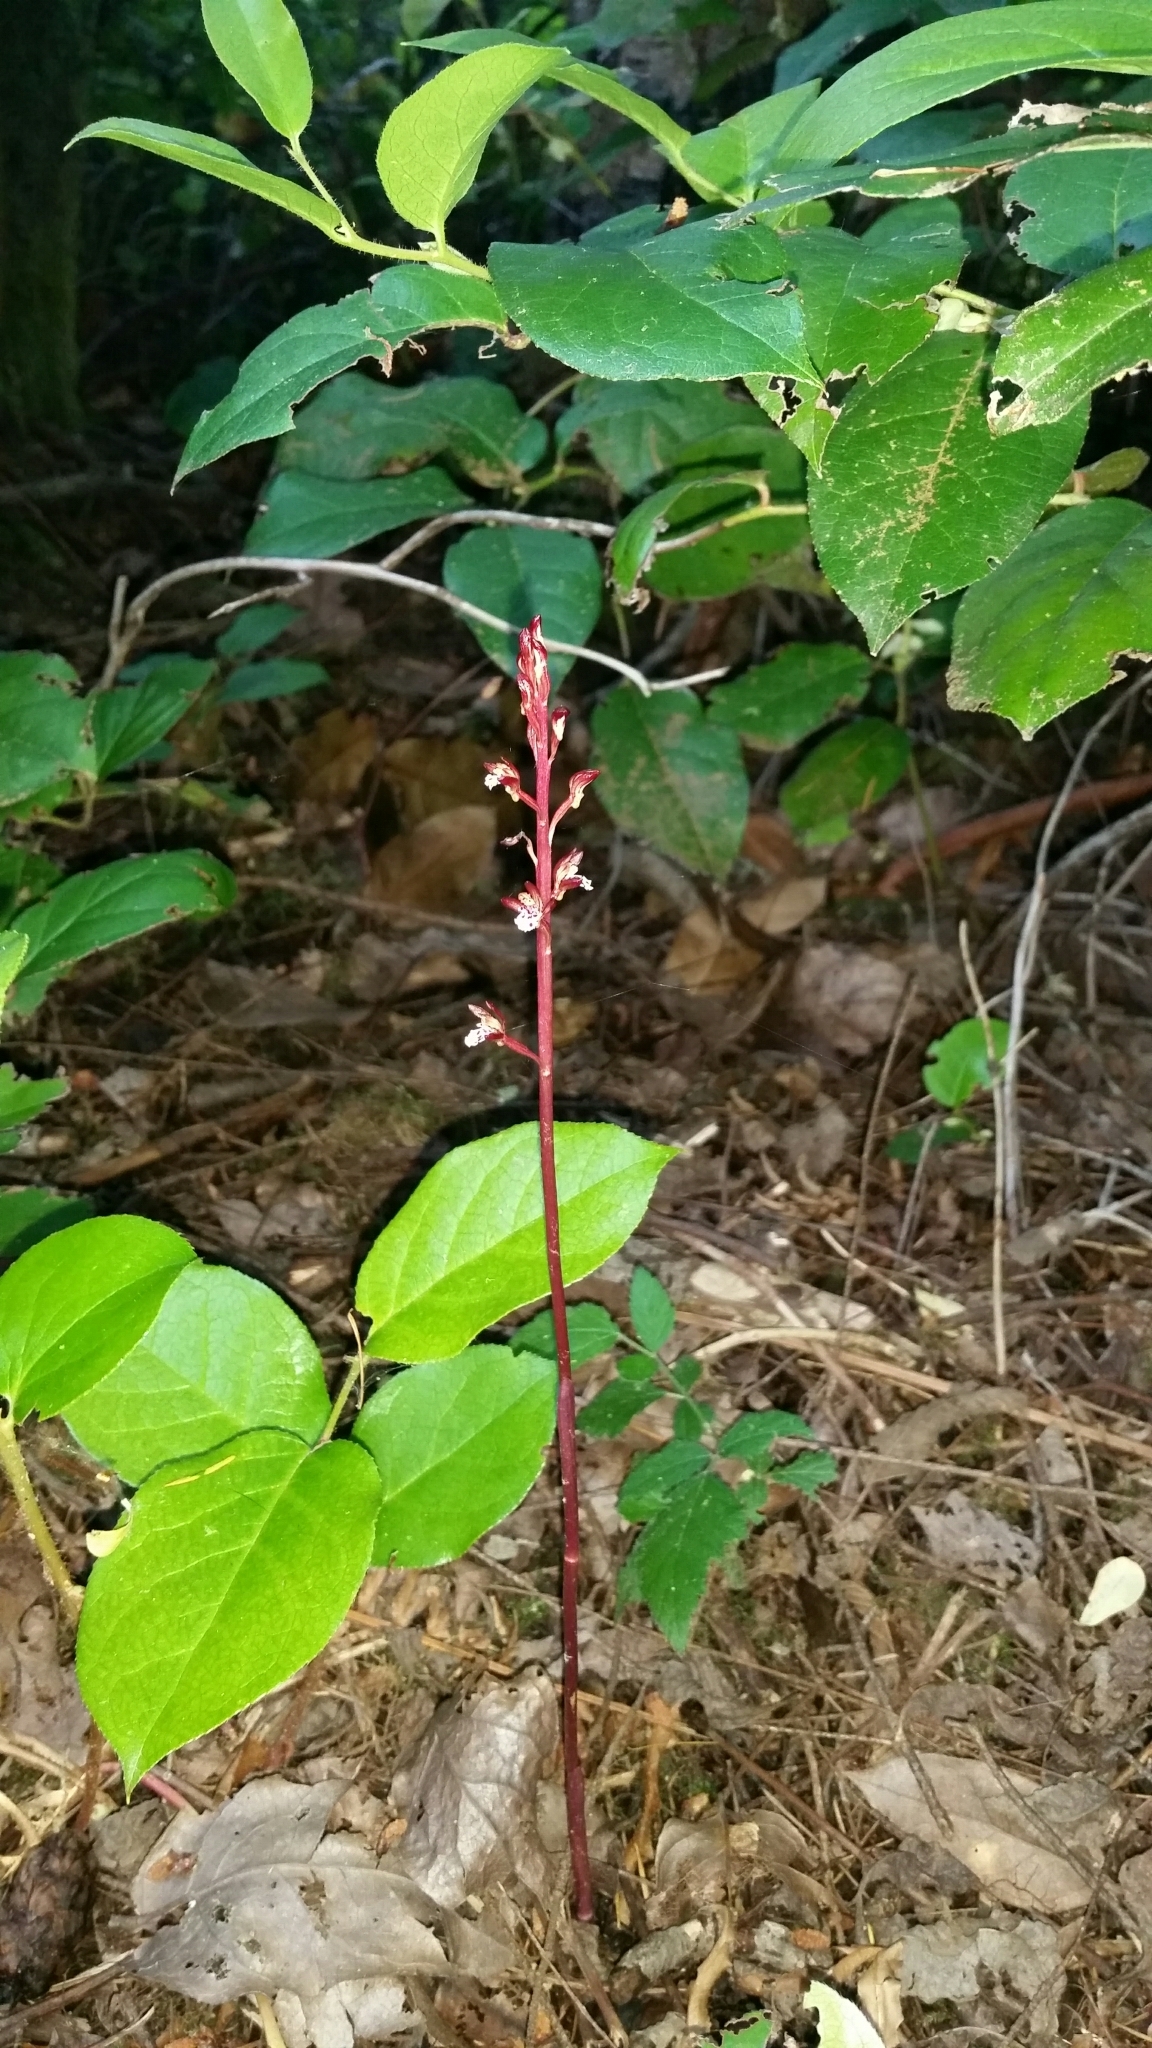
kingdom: Plantae
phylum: Tracheophyta
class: Liliopsida
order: Asparagales
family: Orchidaceae
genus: Corallorhiza
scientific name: Corallorhiza maculata
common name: Spotted coralroot
